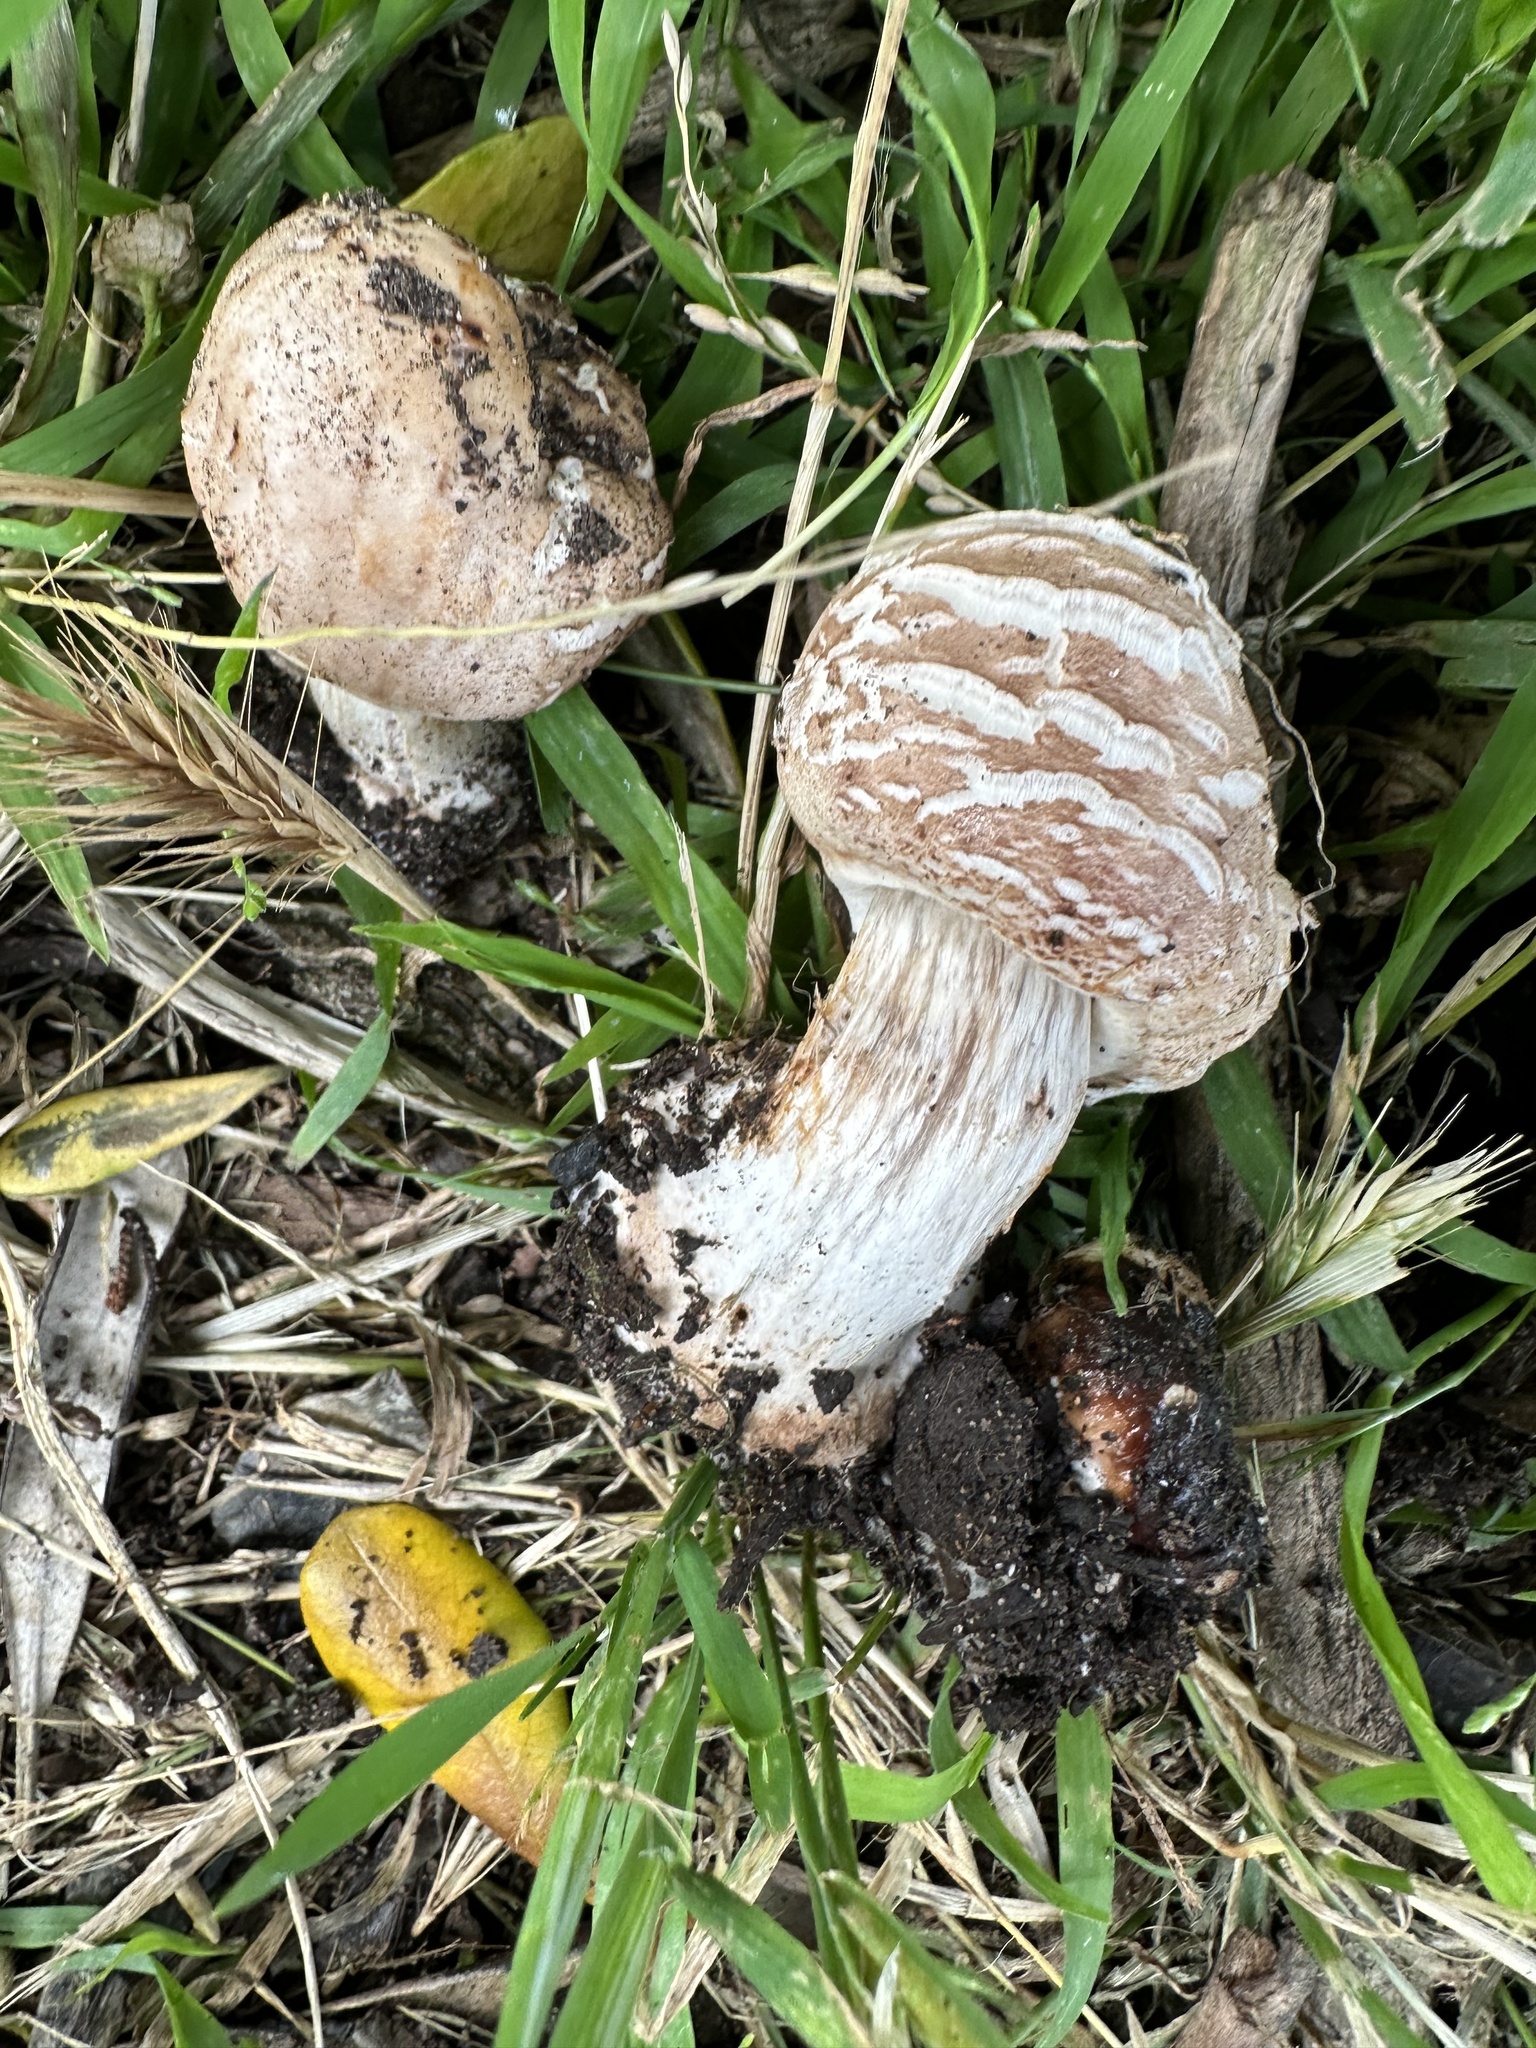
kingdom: Fungi
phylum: Basidiomycota
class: Agaricomycetes
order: Agaricales
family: Agaricaceae
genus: Chlorophyllum
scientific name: Chlorophyllum brunneum
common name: Brown parasol
